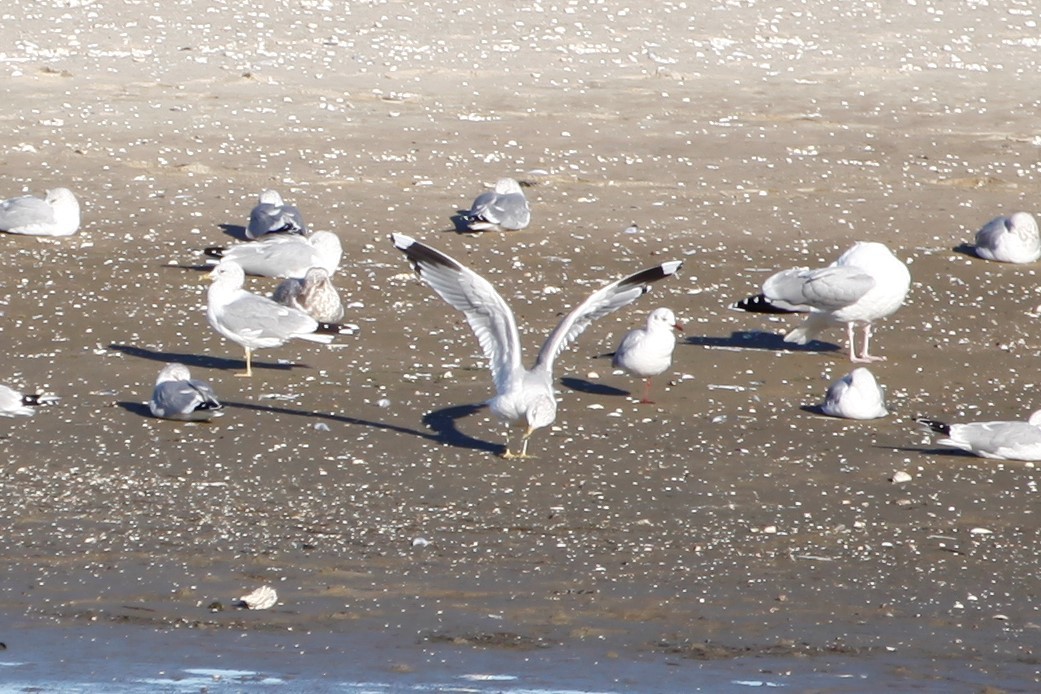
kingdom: Animalia
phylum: Chordata
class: Aves
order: Charadriiformes
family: Laridae
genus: Larus
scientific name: Larus canus
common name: Mew gull
